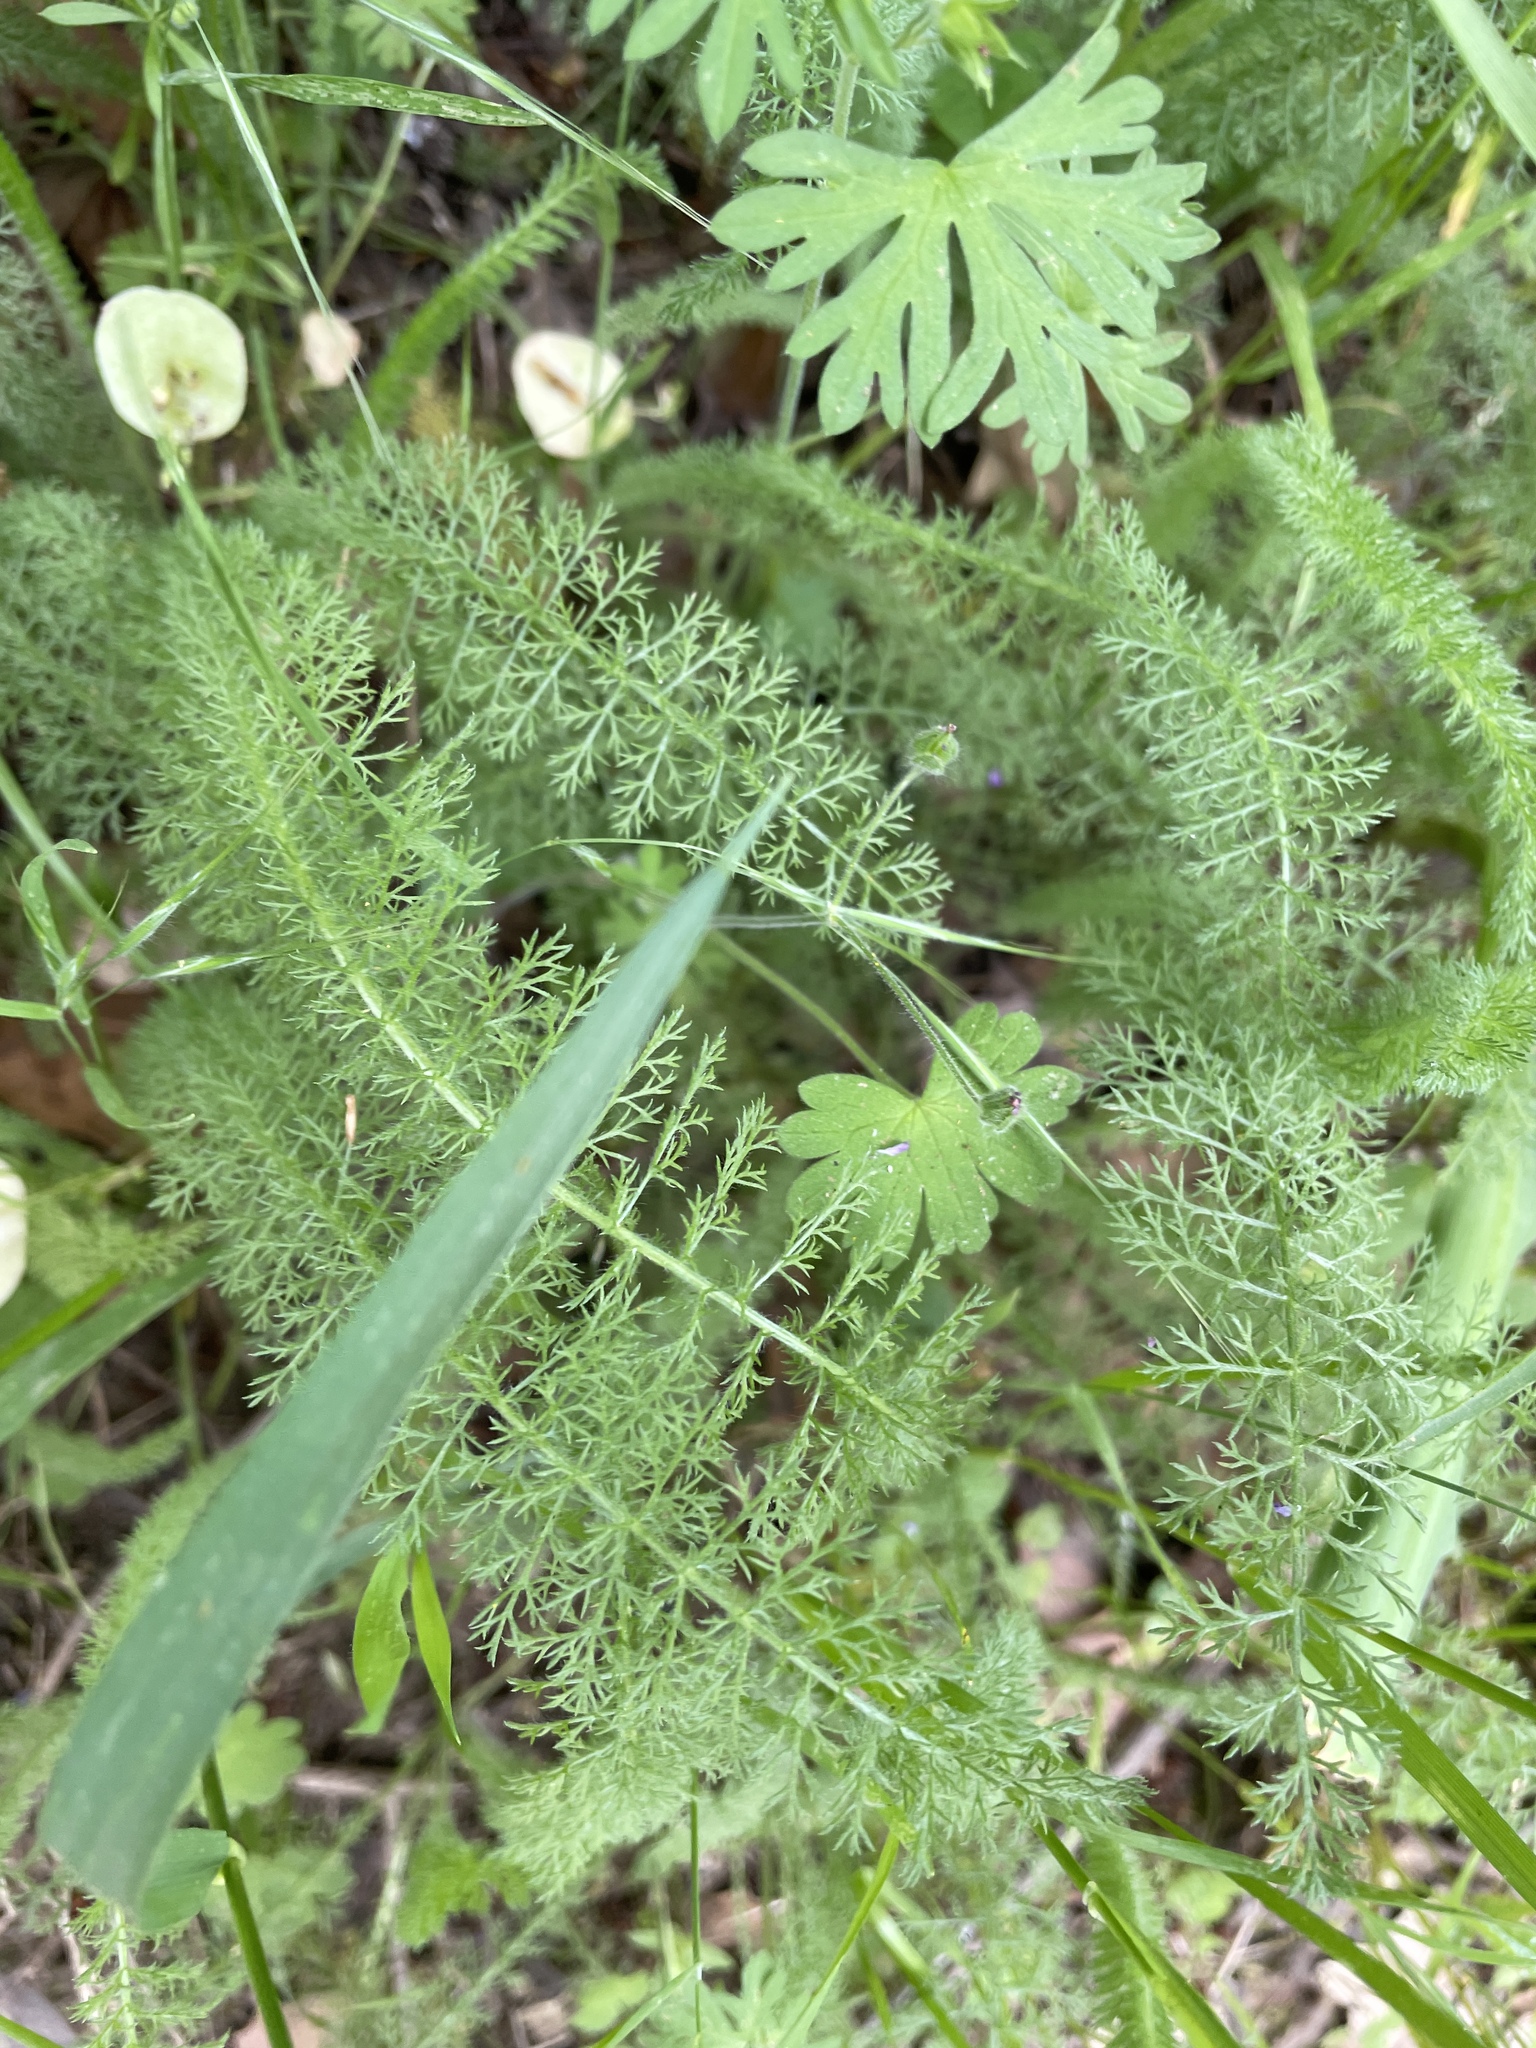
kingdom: Plantae
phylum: Tracheophyta
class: Magnoliopsida
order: Asterales
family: Asteraceae
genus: Achillea
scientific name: Achillea millefolium
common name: Yarrow
